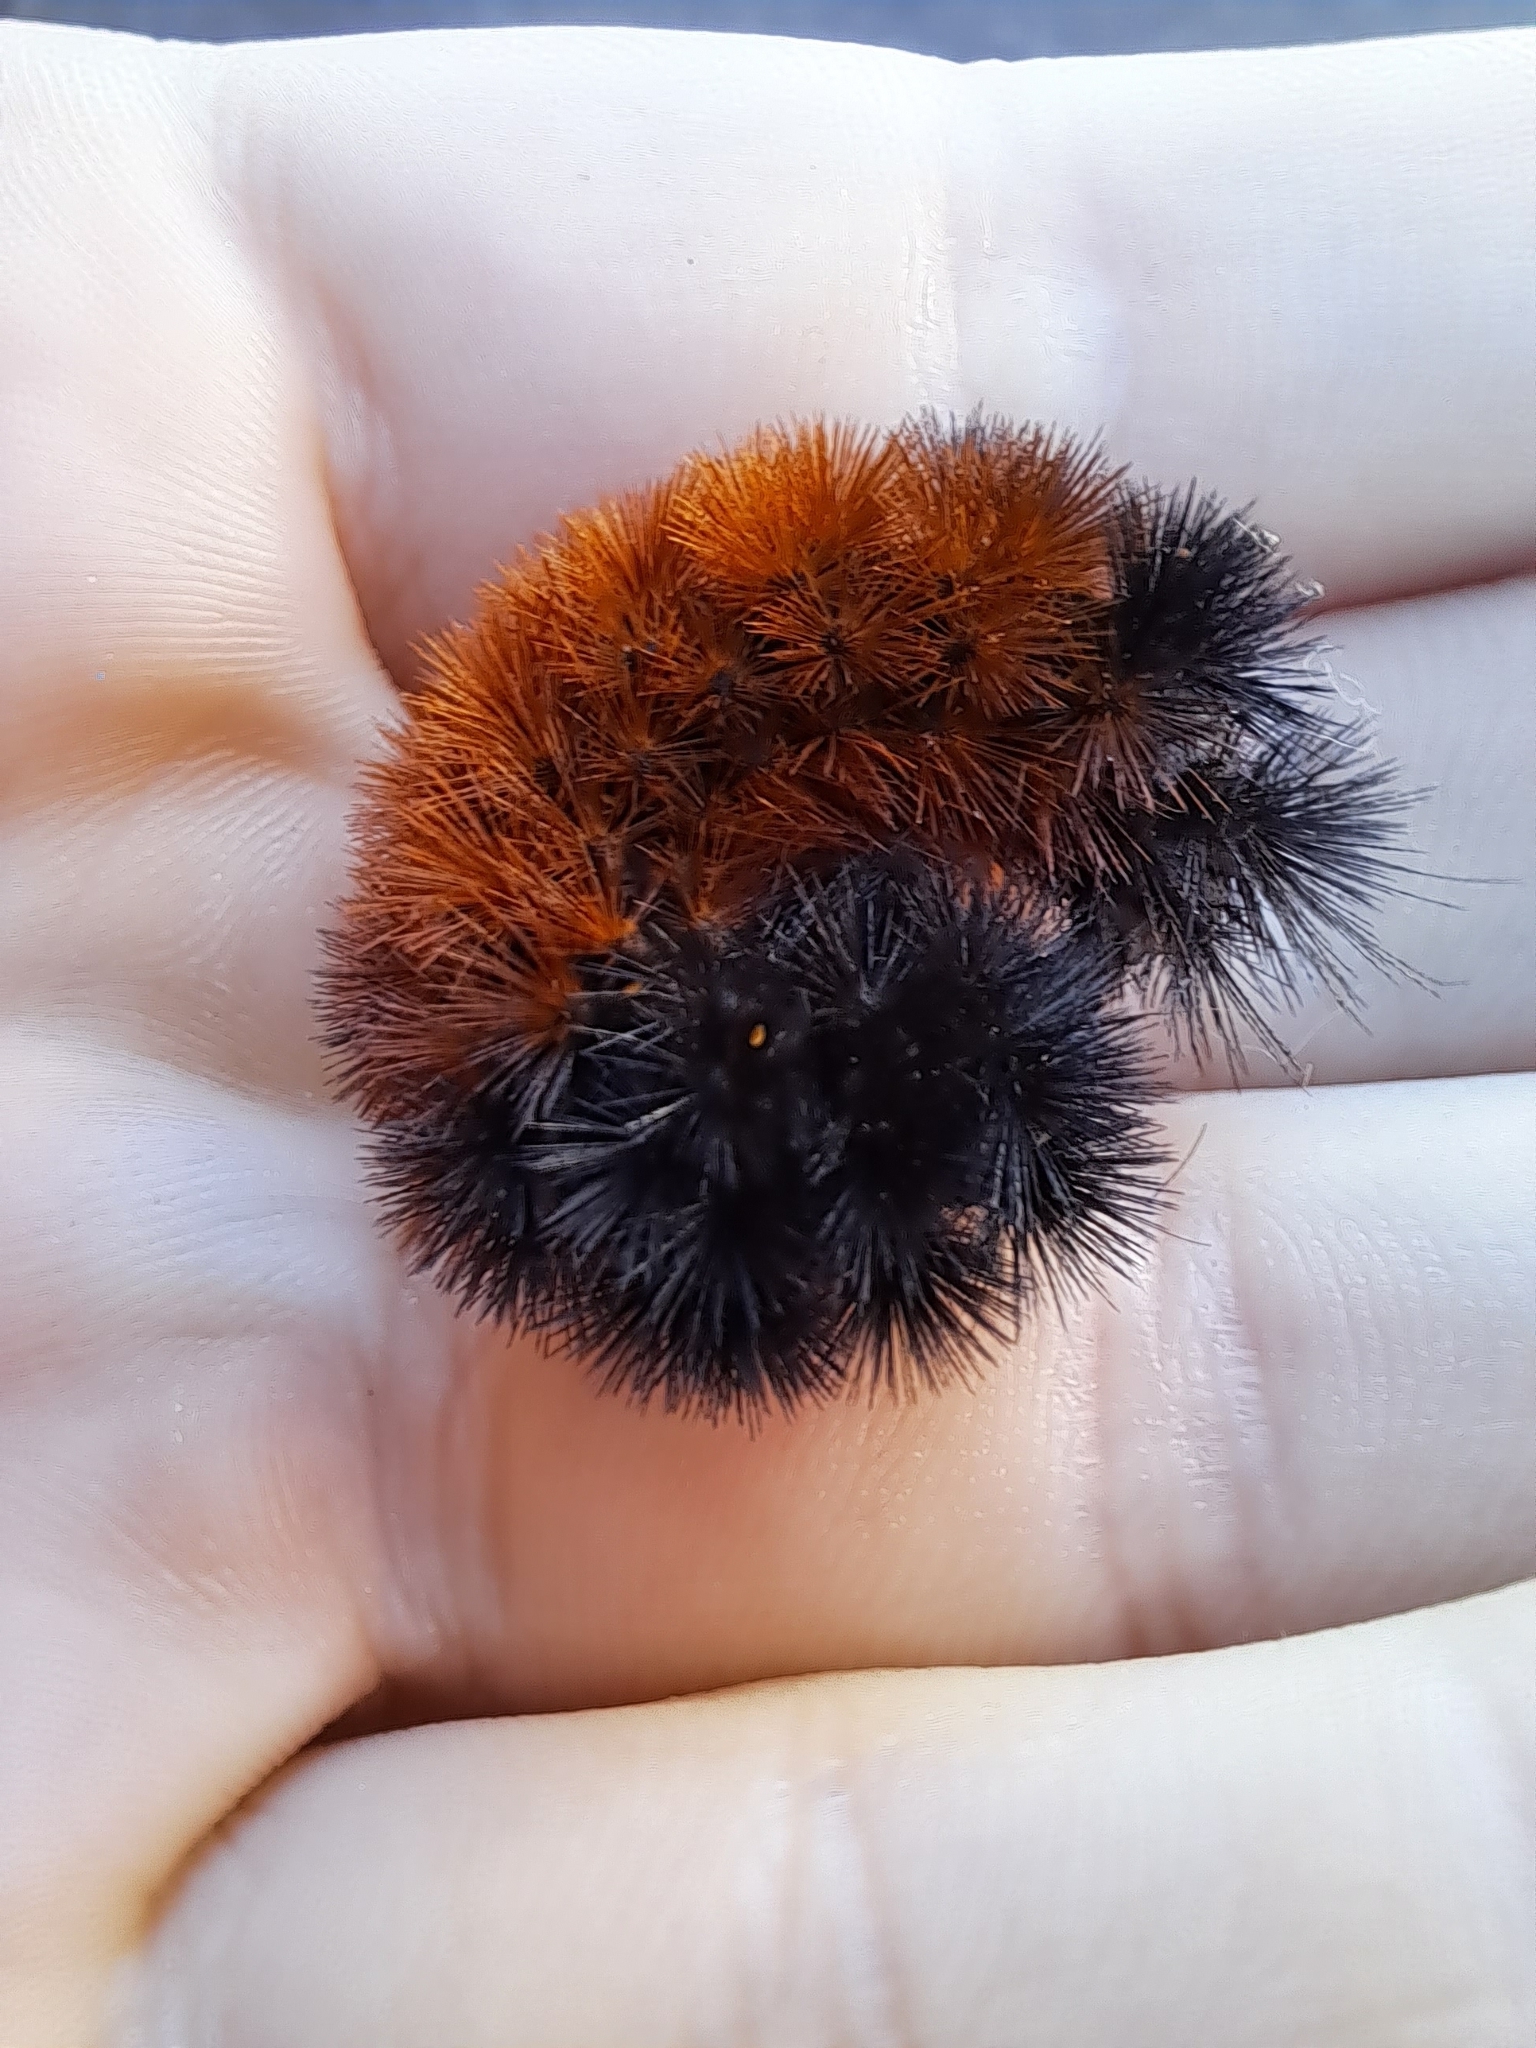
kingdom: Animalia
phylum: Arthropoda
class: Insecta
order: Lepidoptera
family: Erebidae
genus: Pyrrharctia
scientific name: Pyrrharctia isabella
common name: Isabella tiger moth
